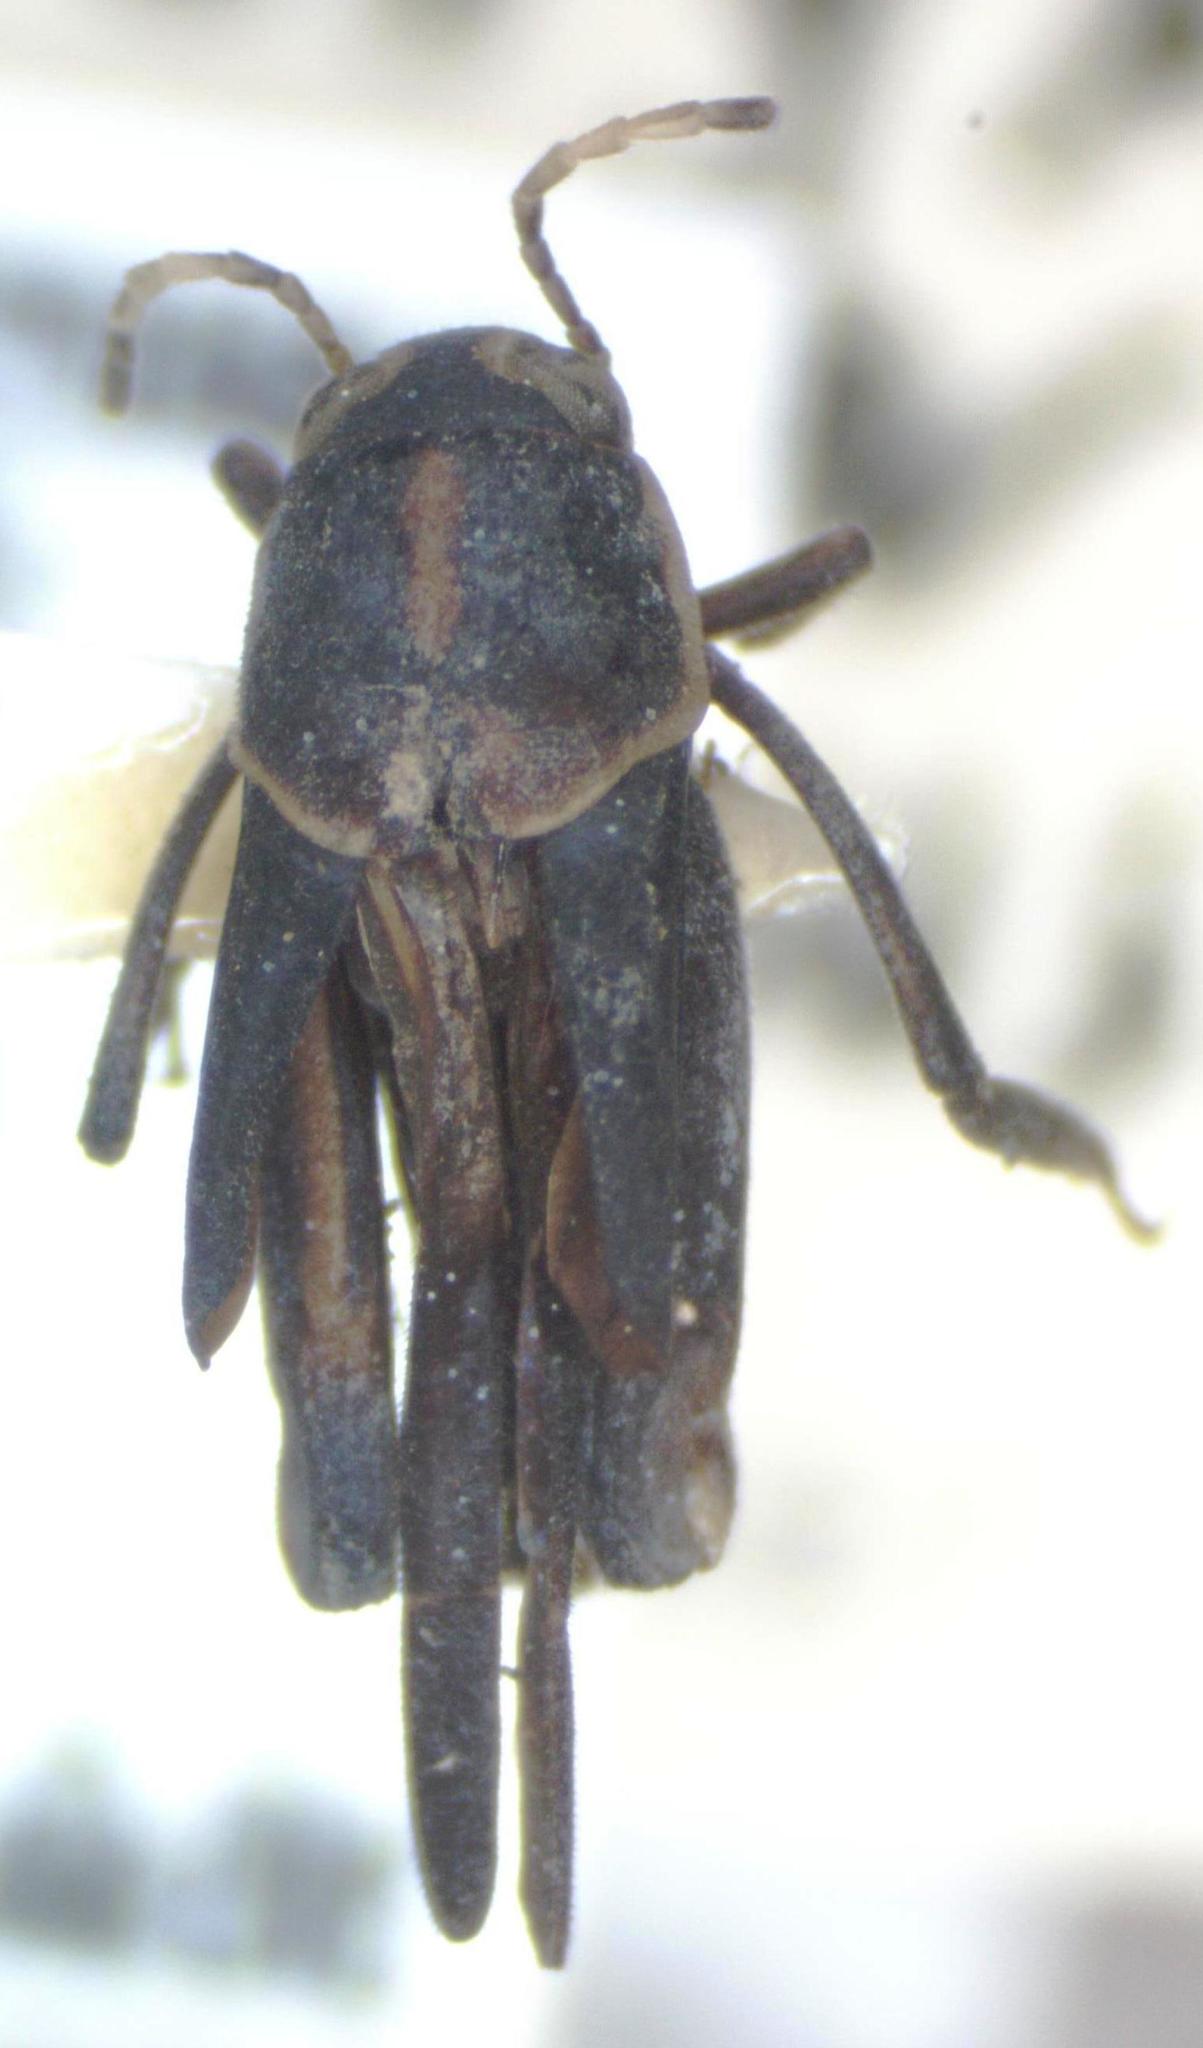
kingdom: Animalia
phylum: Arthropoda
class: Insecta
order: Orthoptera
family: Ripipterygidae
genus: Ripipteryx
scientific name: Ripipteryx mexicana
